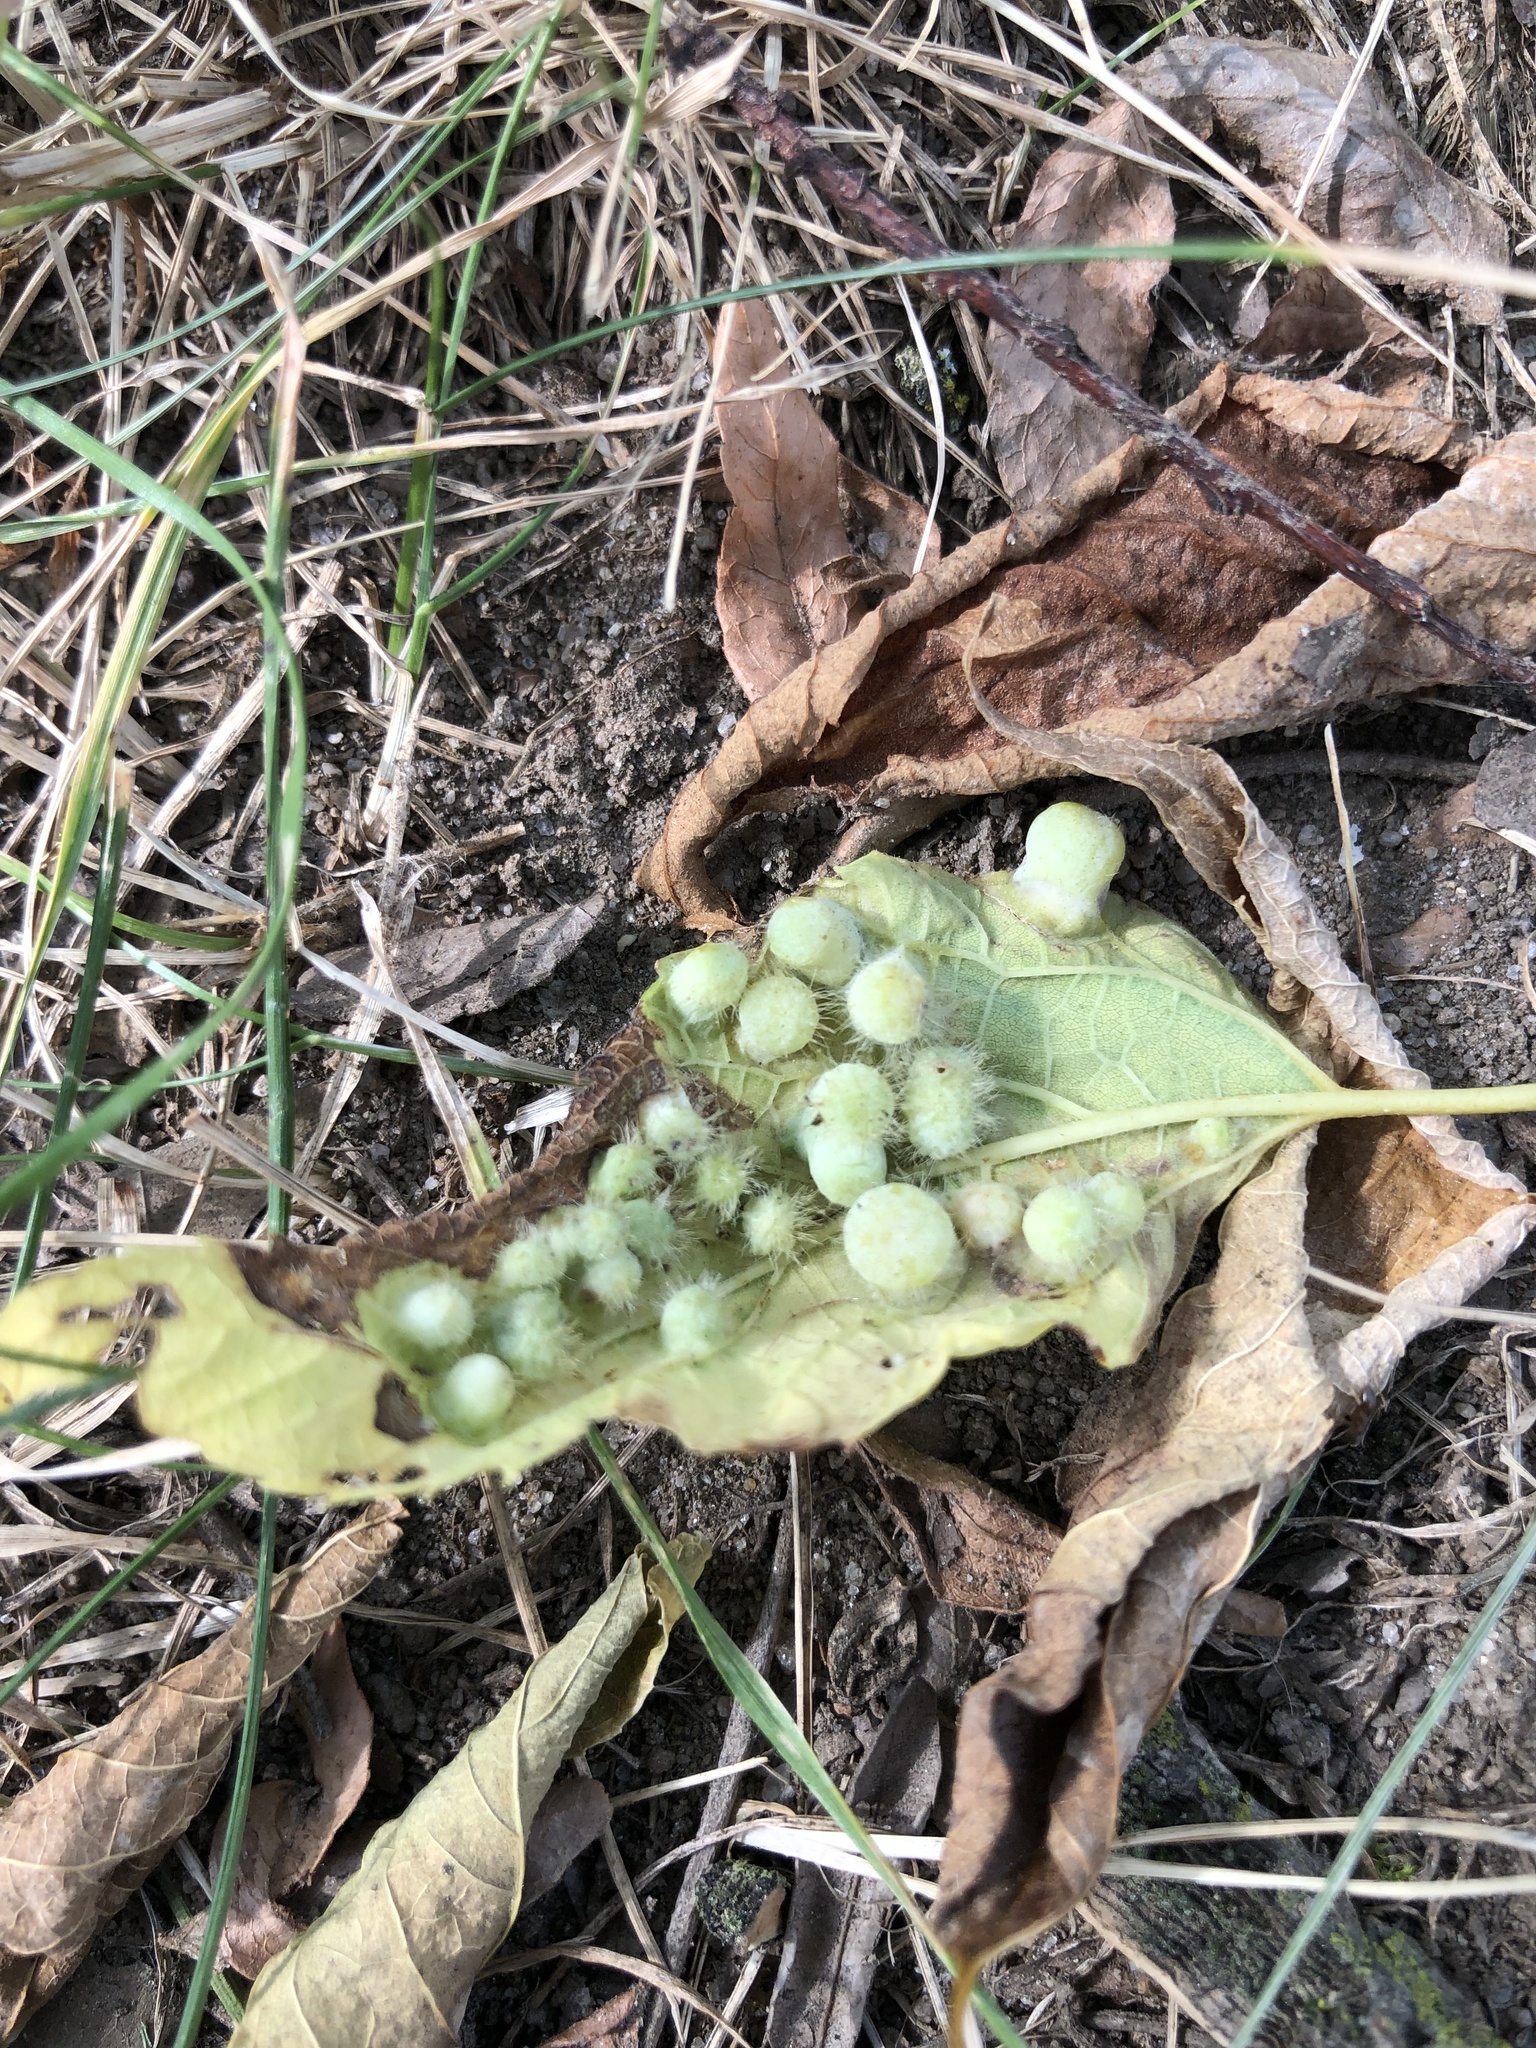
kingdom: Animalia
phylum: Arthropoda
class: Insecta
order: Hemiptera
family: Aphalaridae
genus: Pachypsylla
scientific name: Pachypsylla celtidismamma
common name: Hackberry nipplegall psyllid
